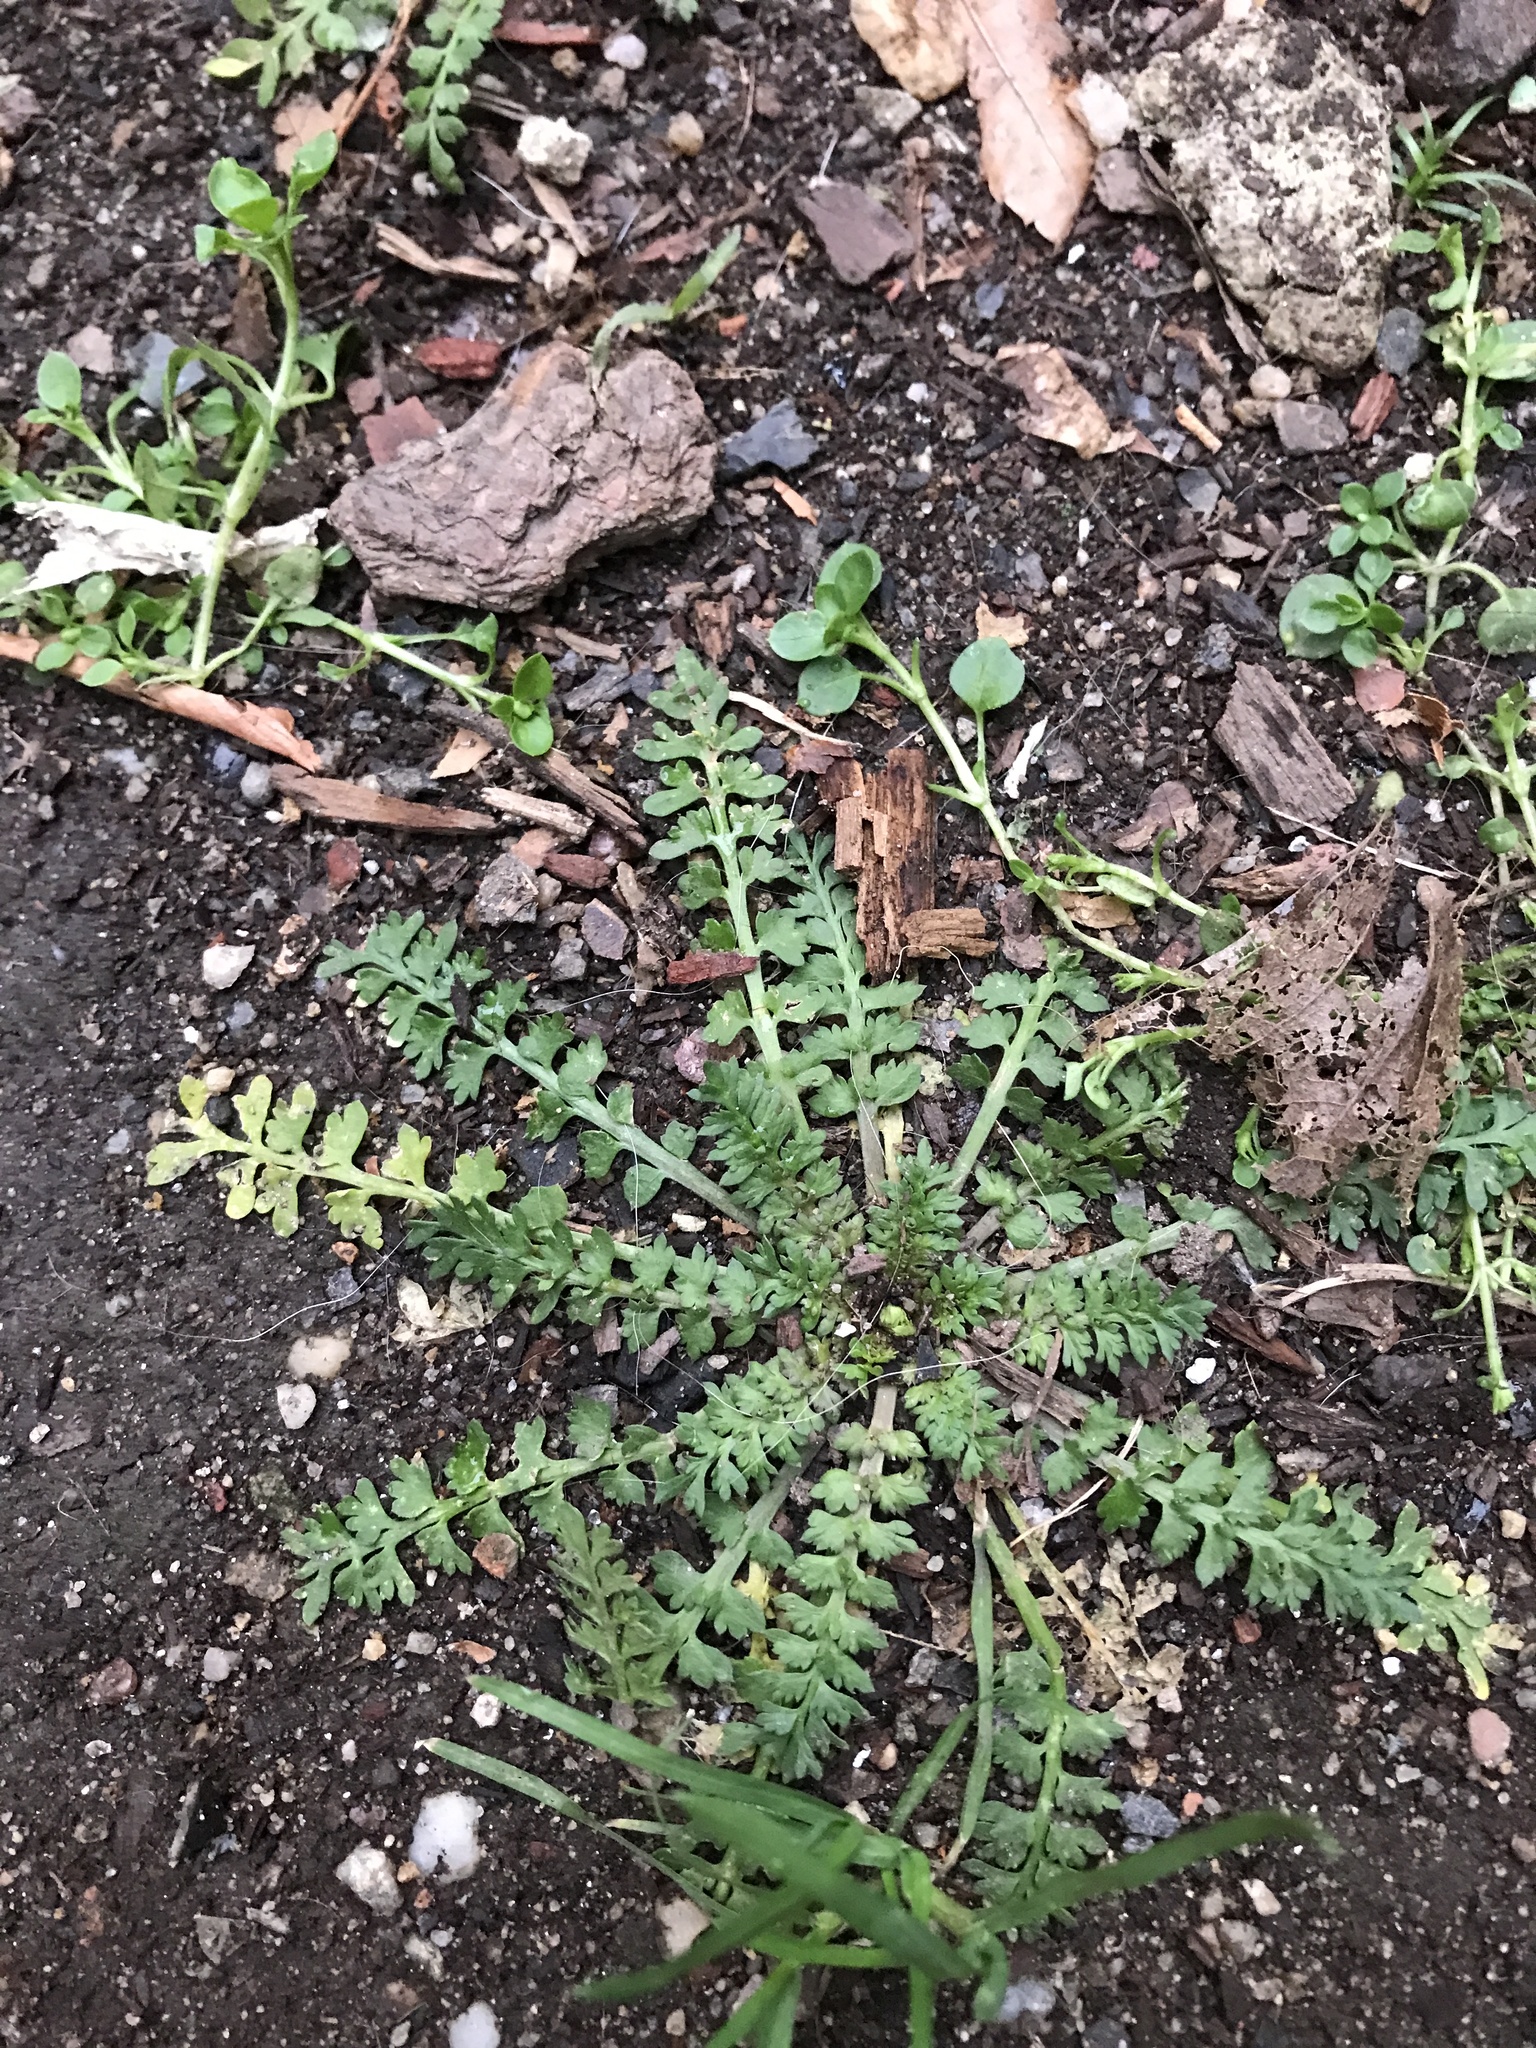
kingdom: Plantae
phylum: Tracheophyta
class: Magnoliopsida
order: Brassicales
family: Brassicaceae
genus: Lepidium
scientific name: Lepidium didymum
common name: Lesser swinecress
